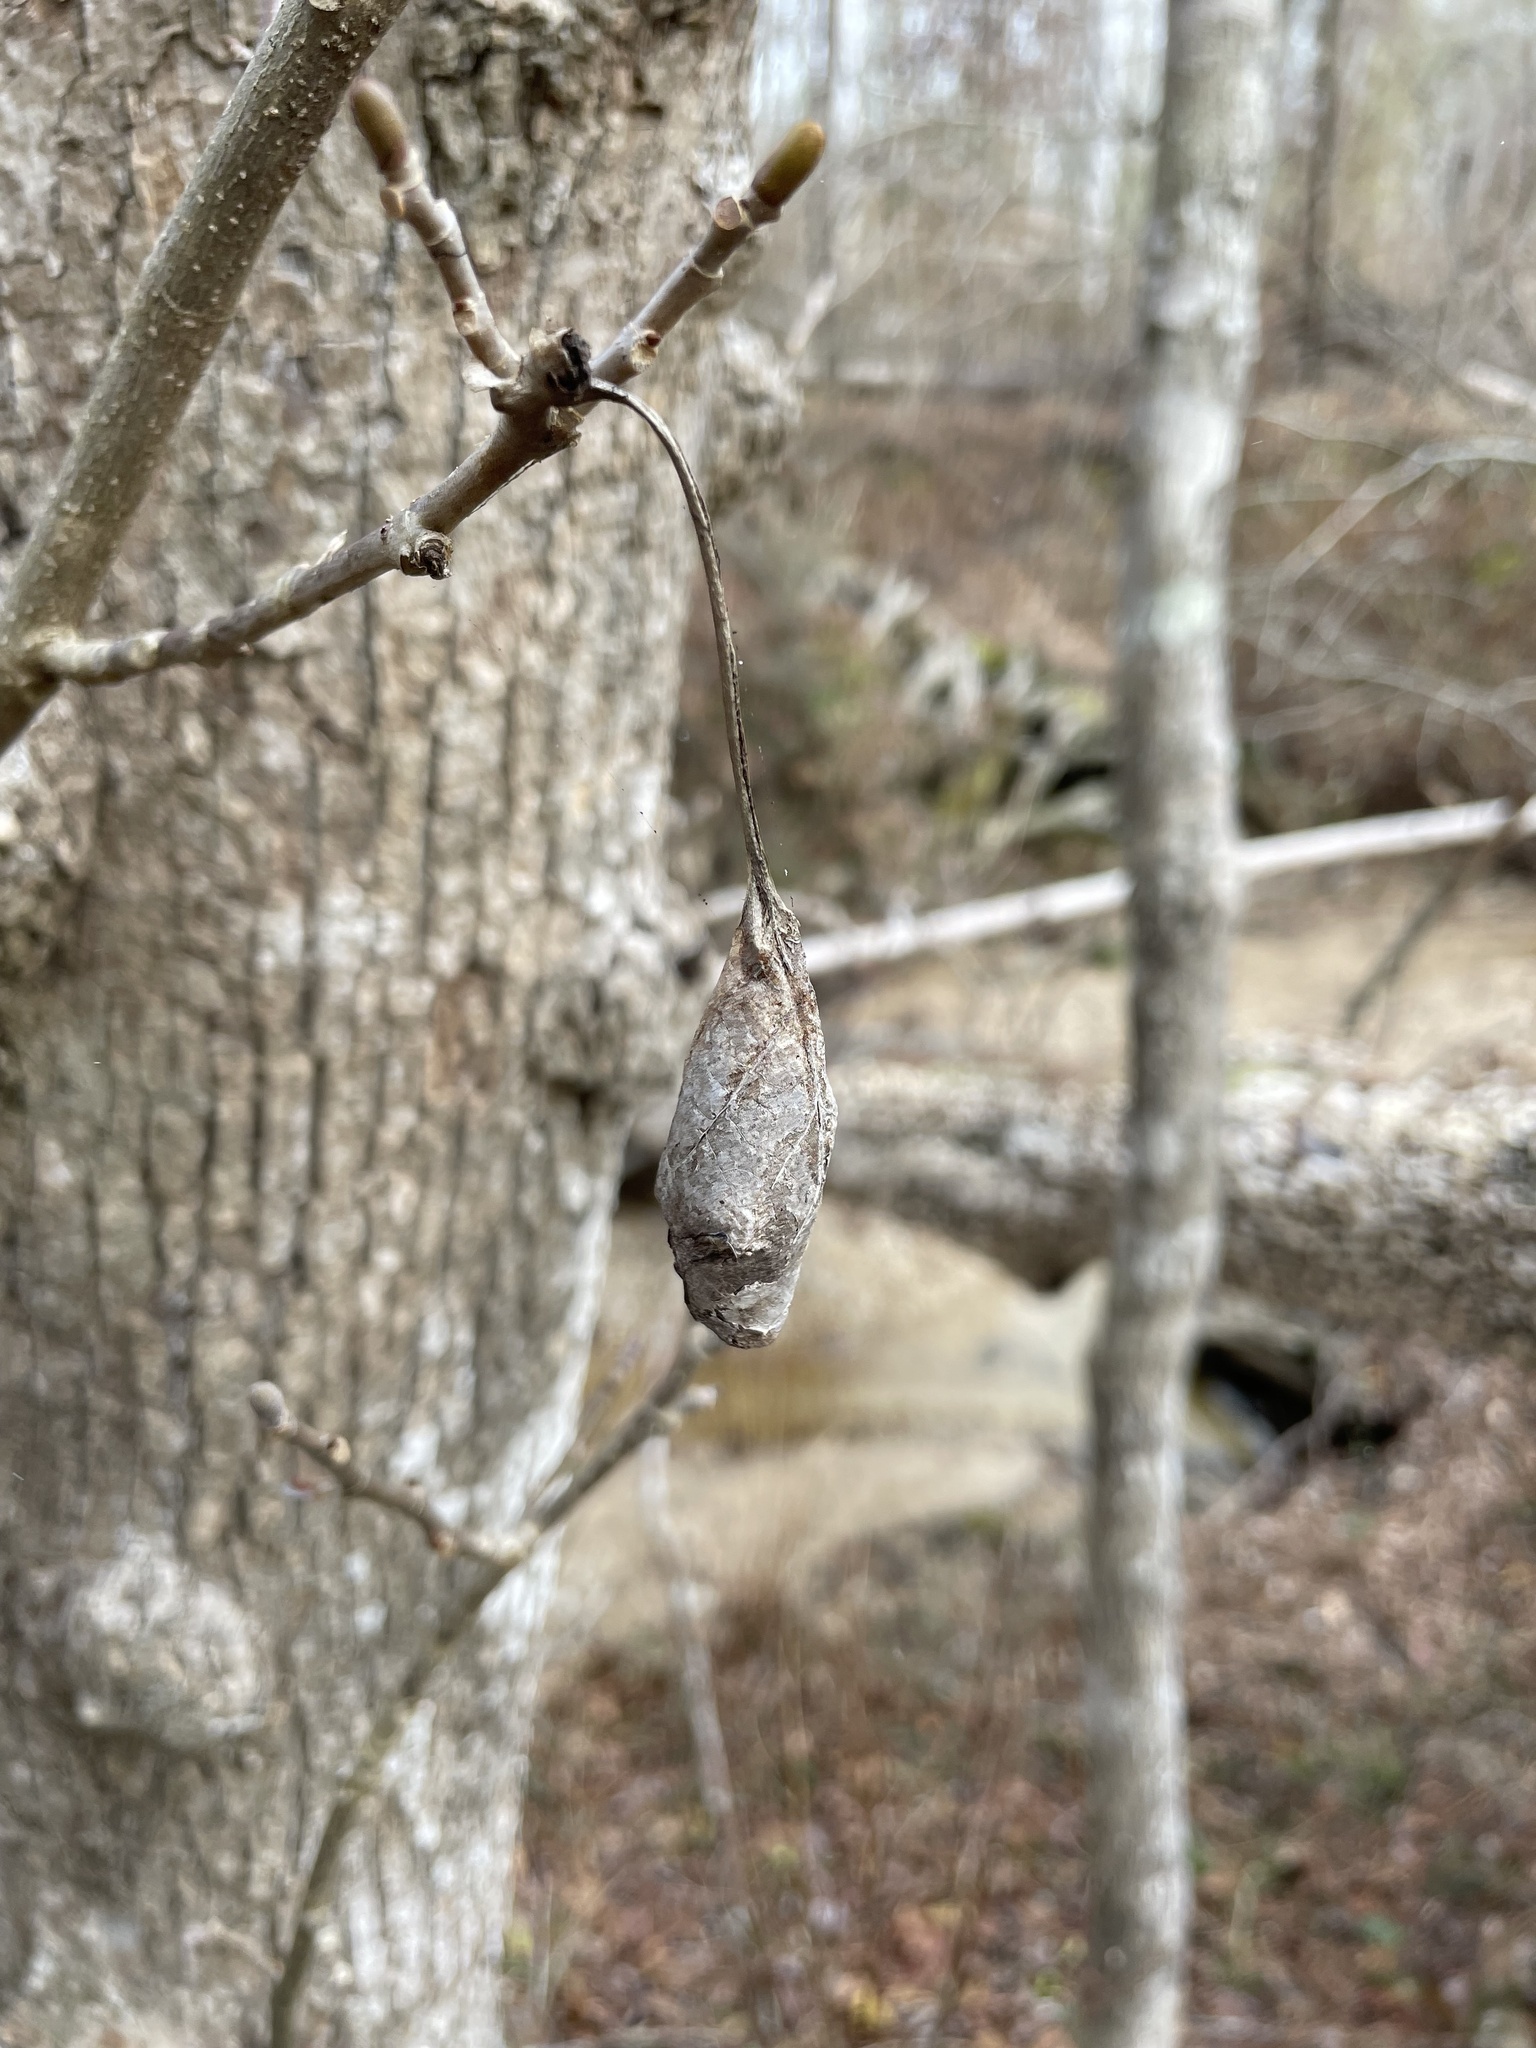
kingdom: Animalia
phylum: Arthropoda
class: Insecta
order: Lepidoptera
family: Saturniidae
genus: Callosamia
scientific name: Callosamia angulifera
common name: Tulip tree silkmoth
